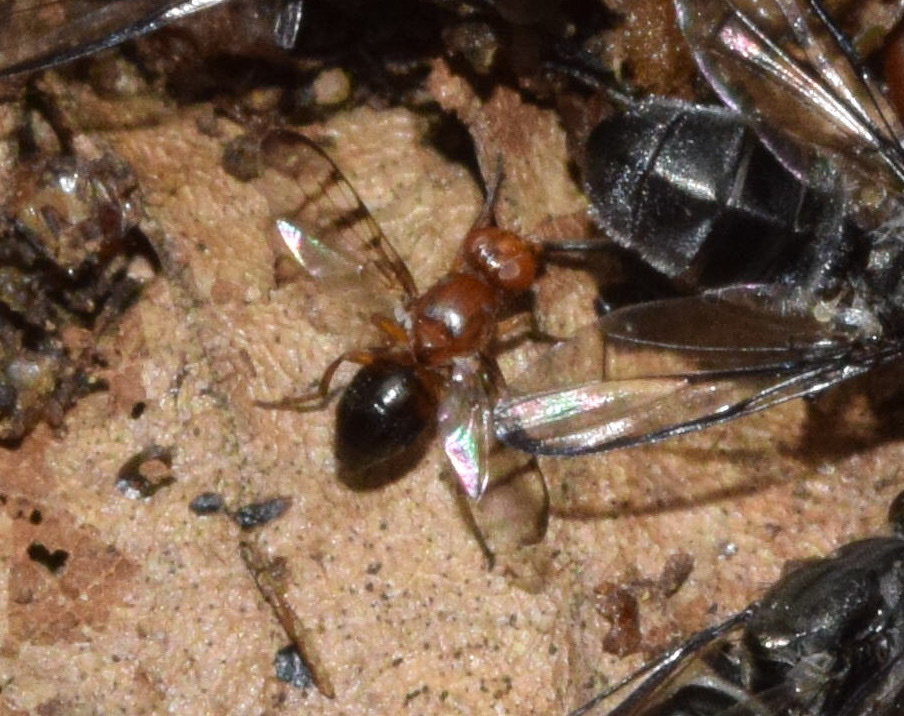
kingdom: Animalia
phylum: Arthropoda
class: Insecta
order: Diptera
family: Platystomatidae
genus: Rivellia
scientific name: Rivellia gracilis
